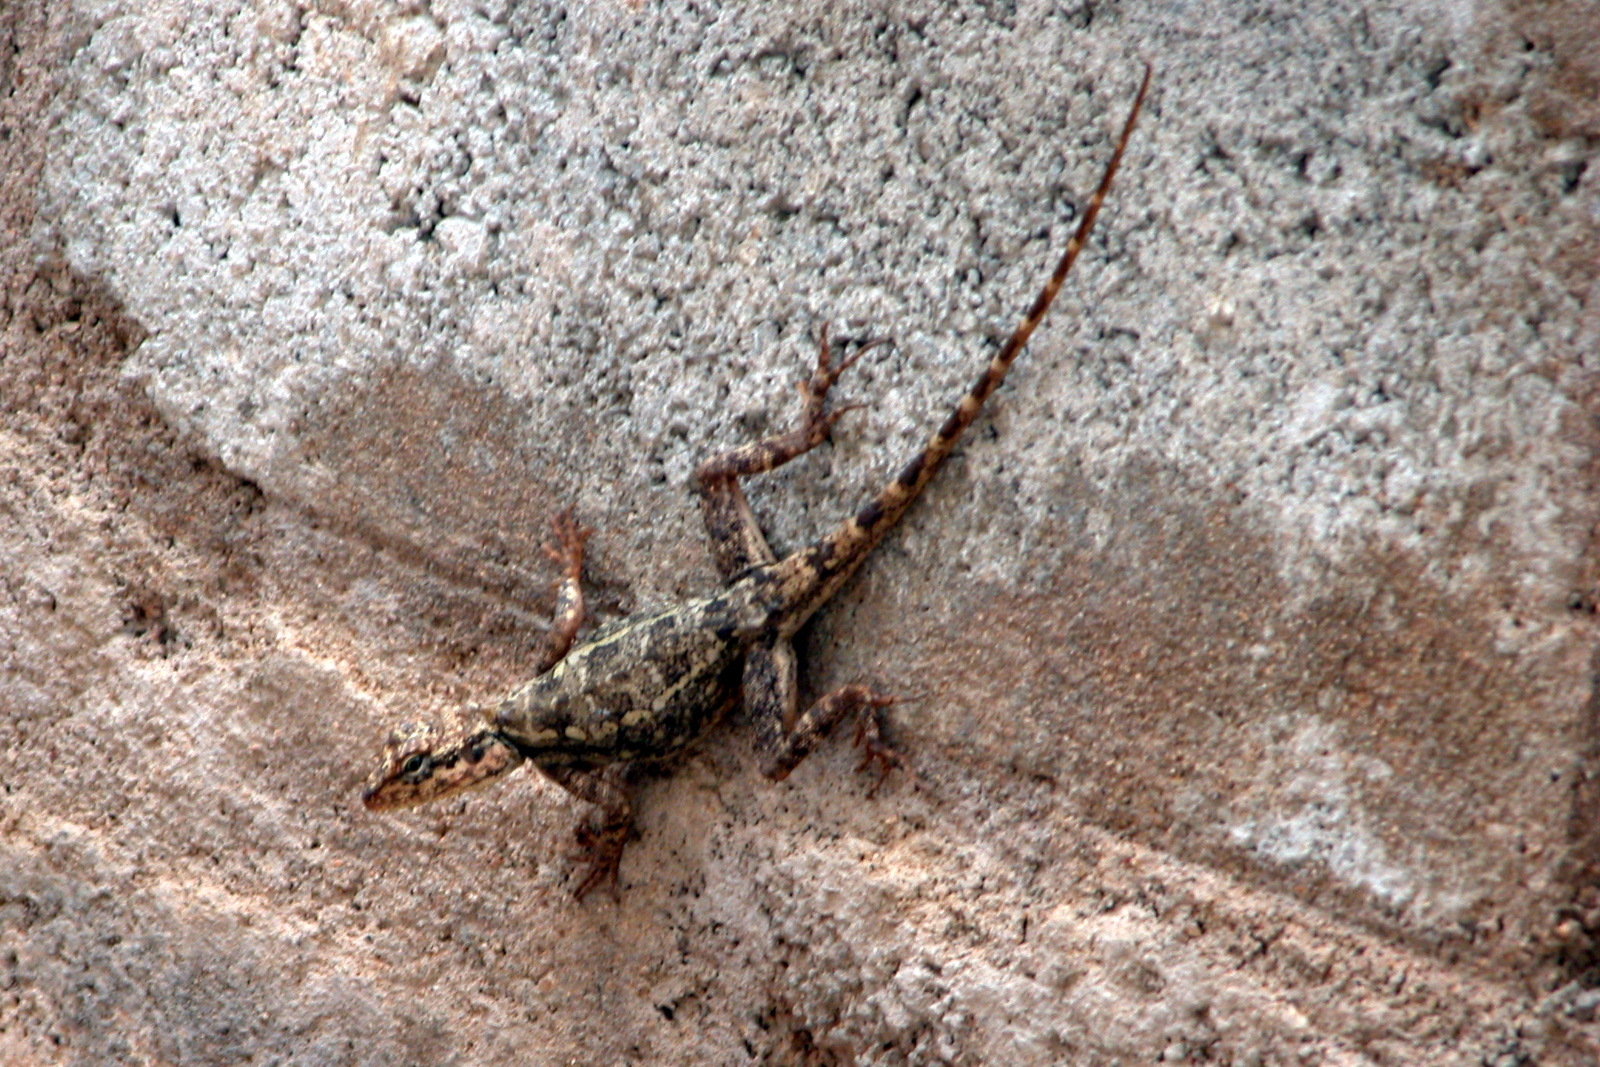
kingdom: Animalia
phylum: Chordata
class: Squamata
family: Agamidae
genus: Psammophilus
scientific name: Psammophilus dorsalis
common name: South indian rock agama
